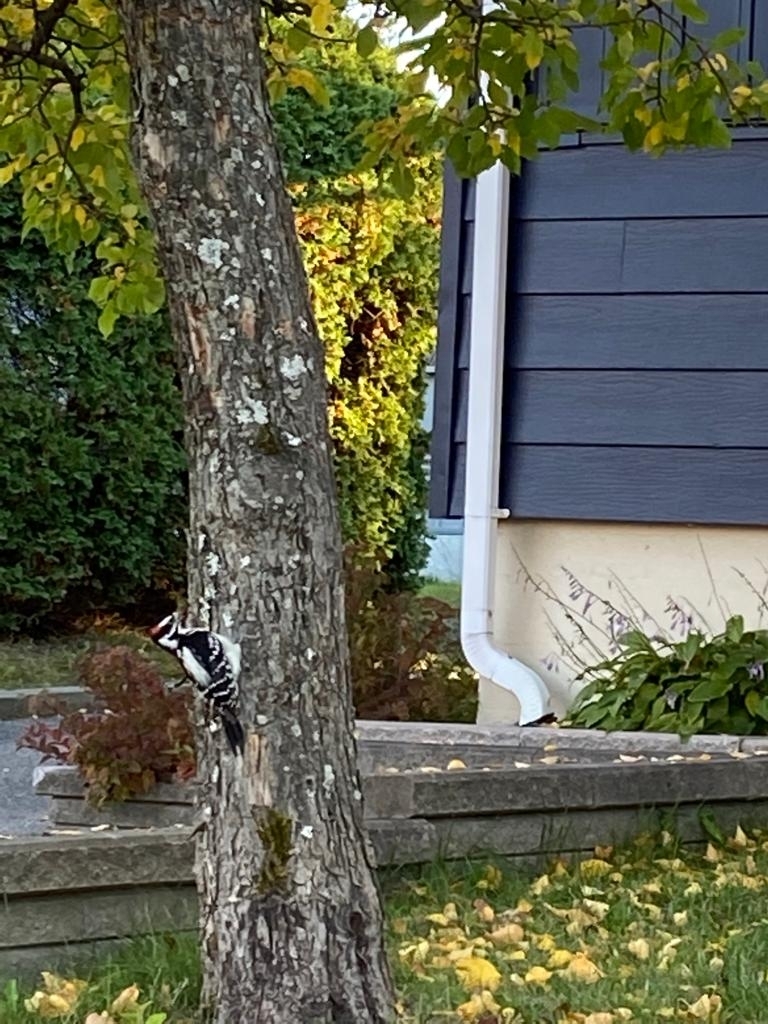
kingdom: Animalia
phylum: Chordata
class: Aves
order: Piciformes
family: Picidae
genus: Leuconotopicus
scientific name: Leuconotopicus villosus
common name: Hairy woodpecker
